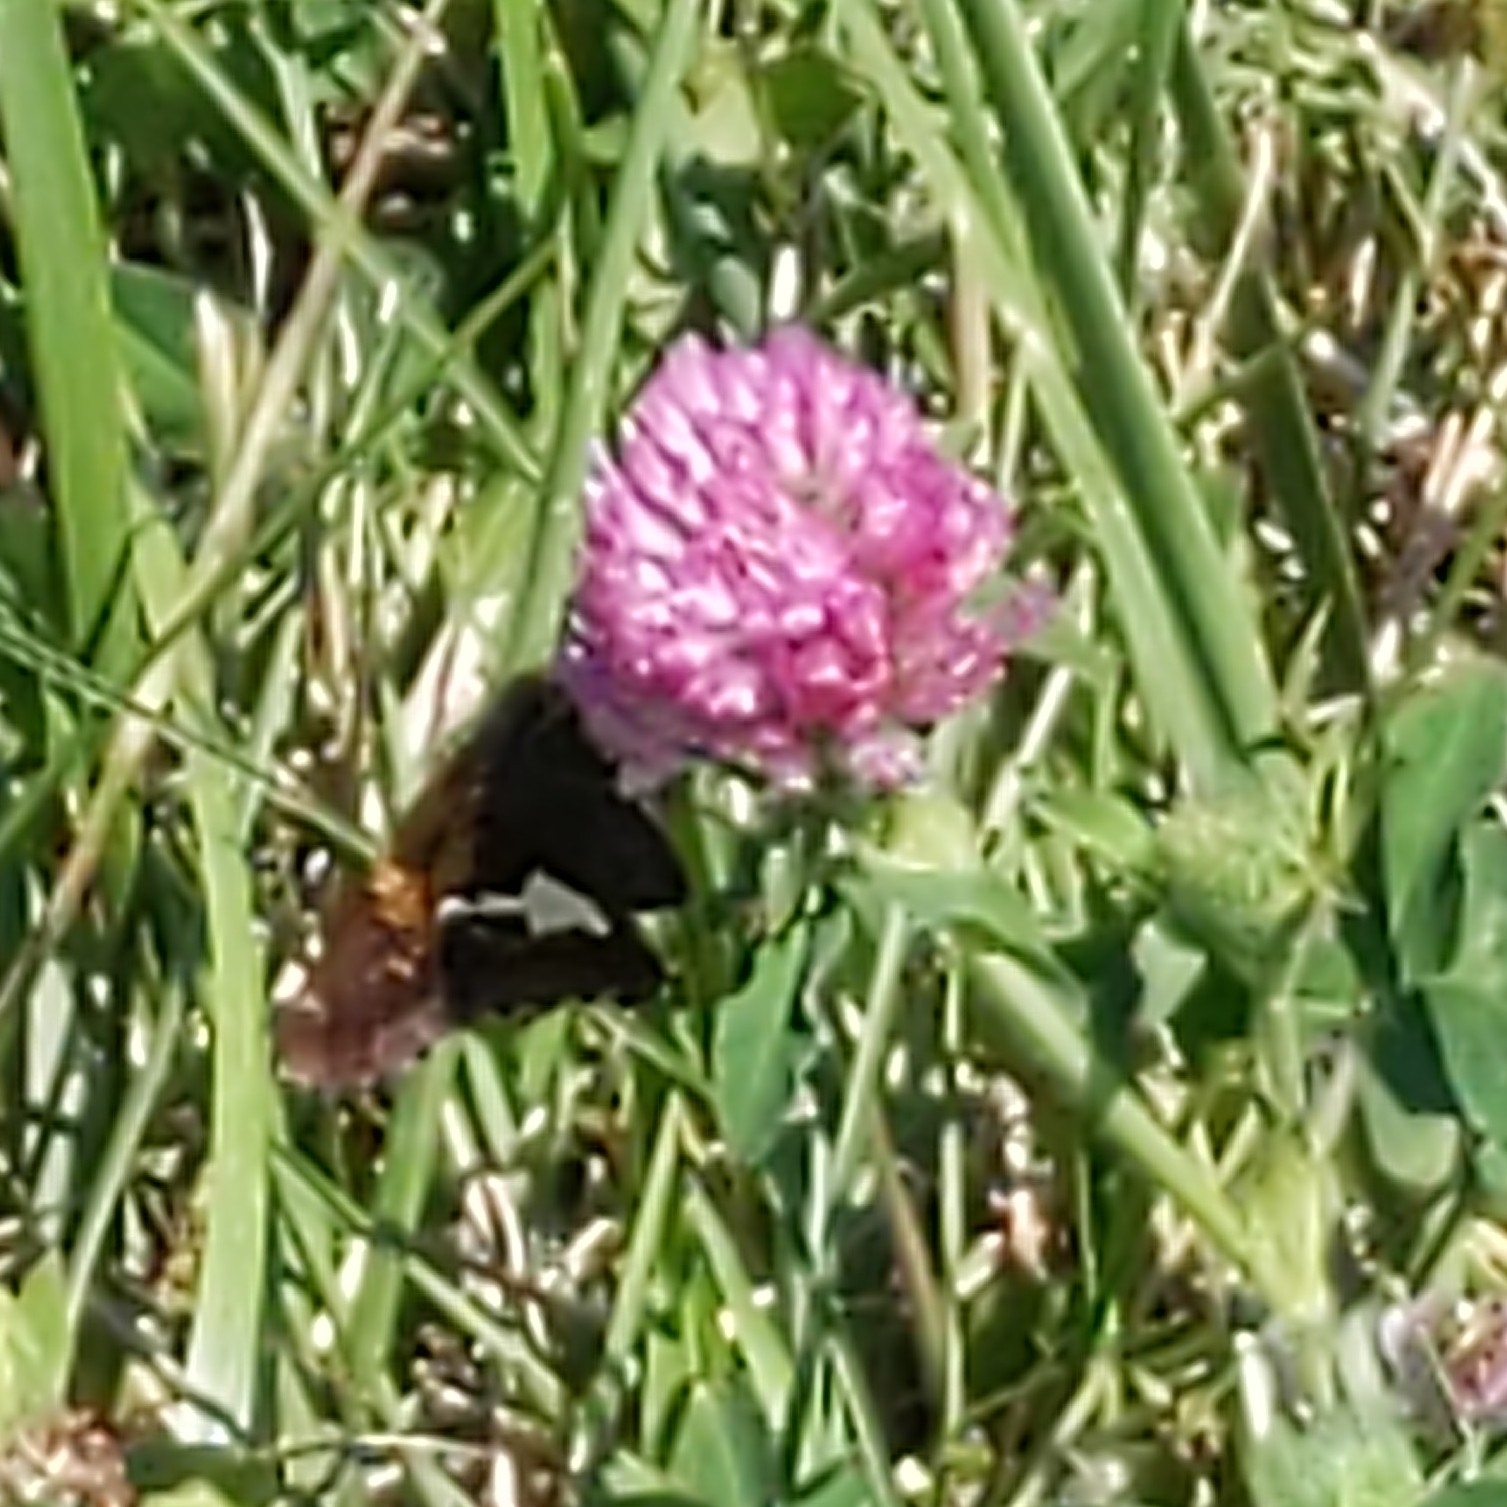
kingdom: Animalia
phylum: Arthropoda
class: Insecta
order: Lepidoptera
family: Hesperiidae
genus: Epargyreus
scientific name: Epargyreus clarus
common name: Silver-spotted skipper
